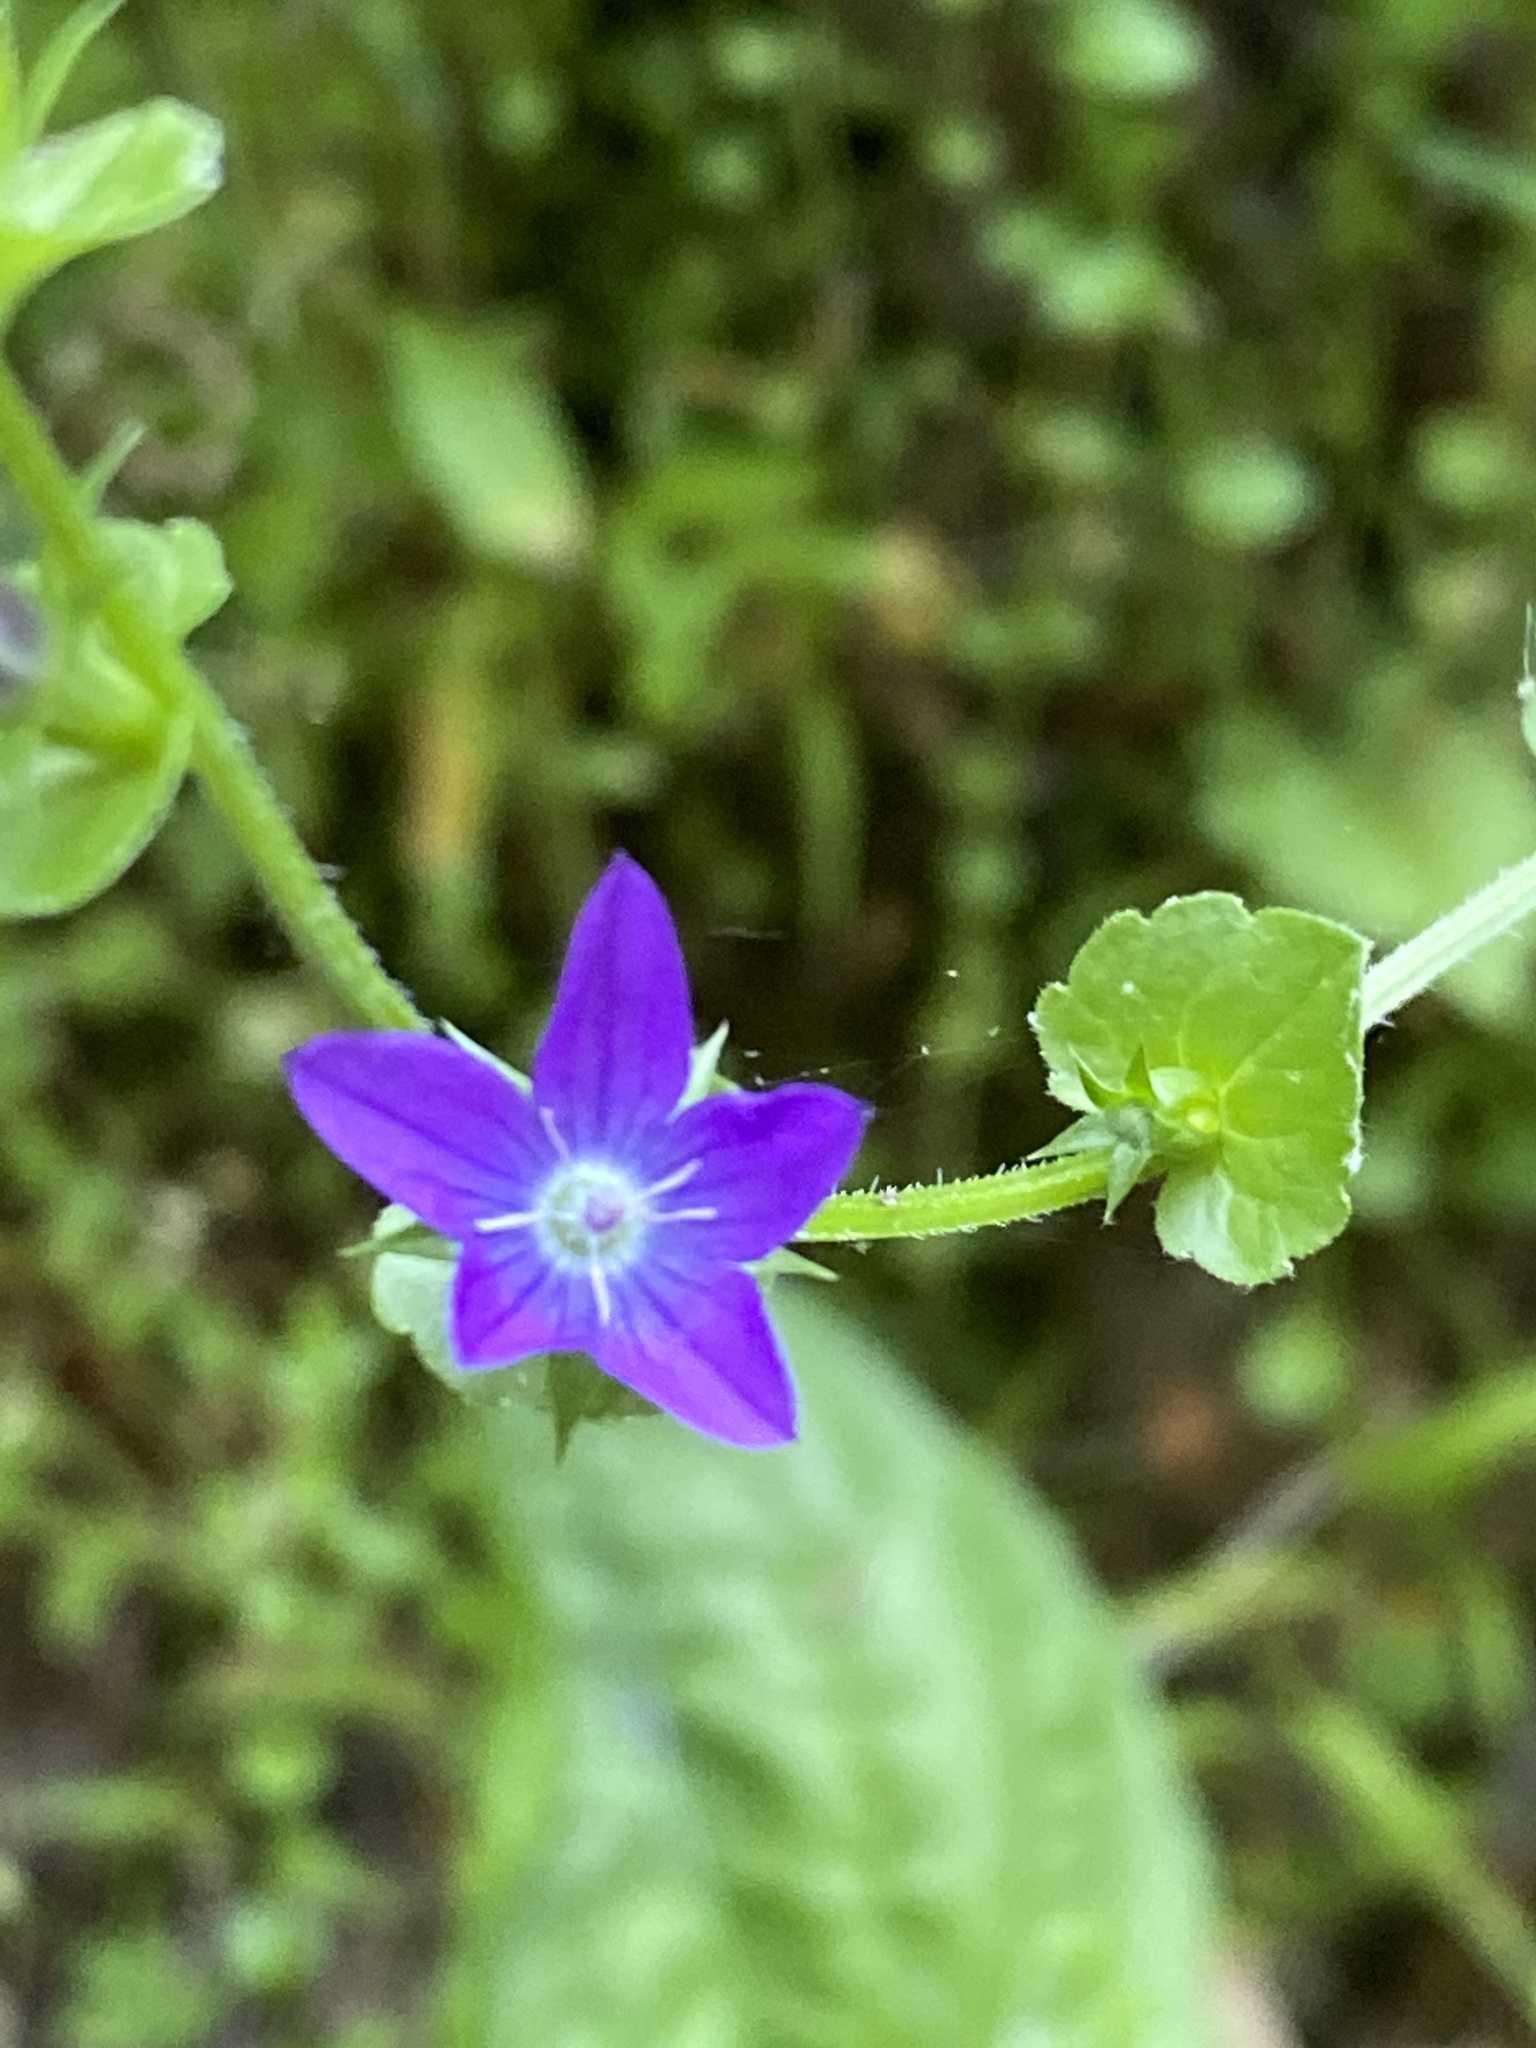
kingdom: Plantae
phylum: Tracheophyta
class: Magnoliopsida
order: Asterales
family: Campanulaceae
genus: Triodanis
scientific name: Triodanis perfoliata
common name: Clasping venus' looking-glass
